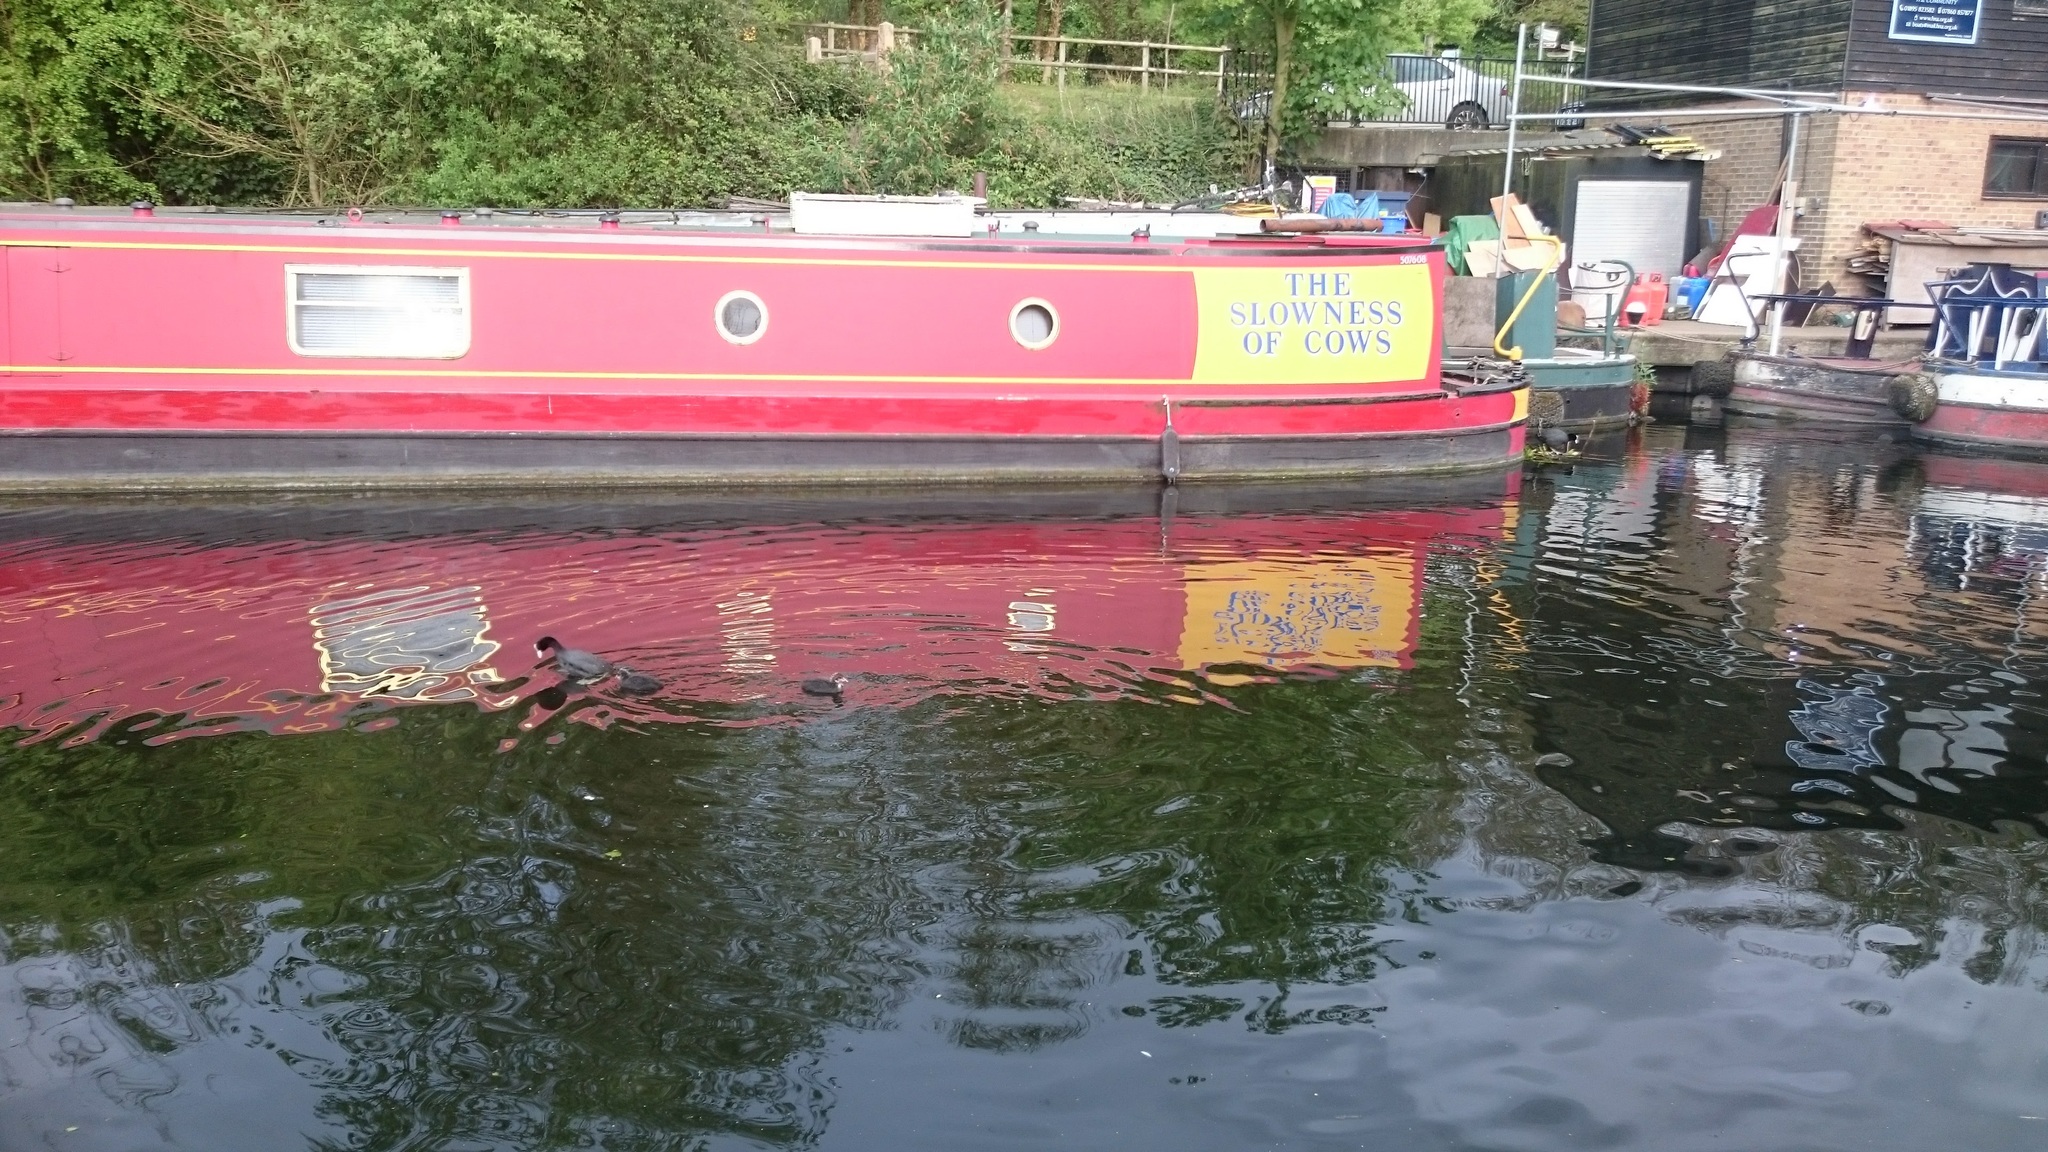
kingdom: Animalia
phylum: Chordata
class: Aves
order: Gruiformes
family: Rallidae
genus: Fulica
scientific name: Fulica atra
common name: Eurasian coot
